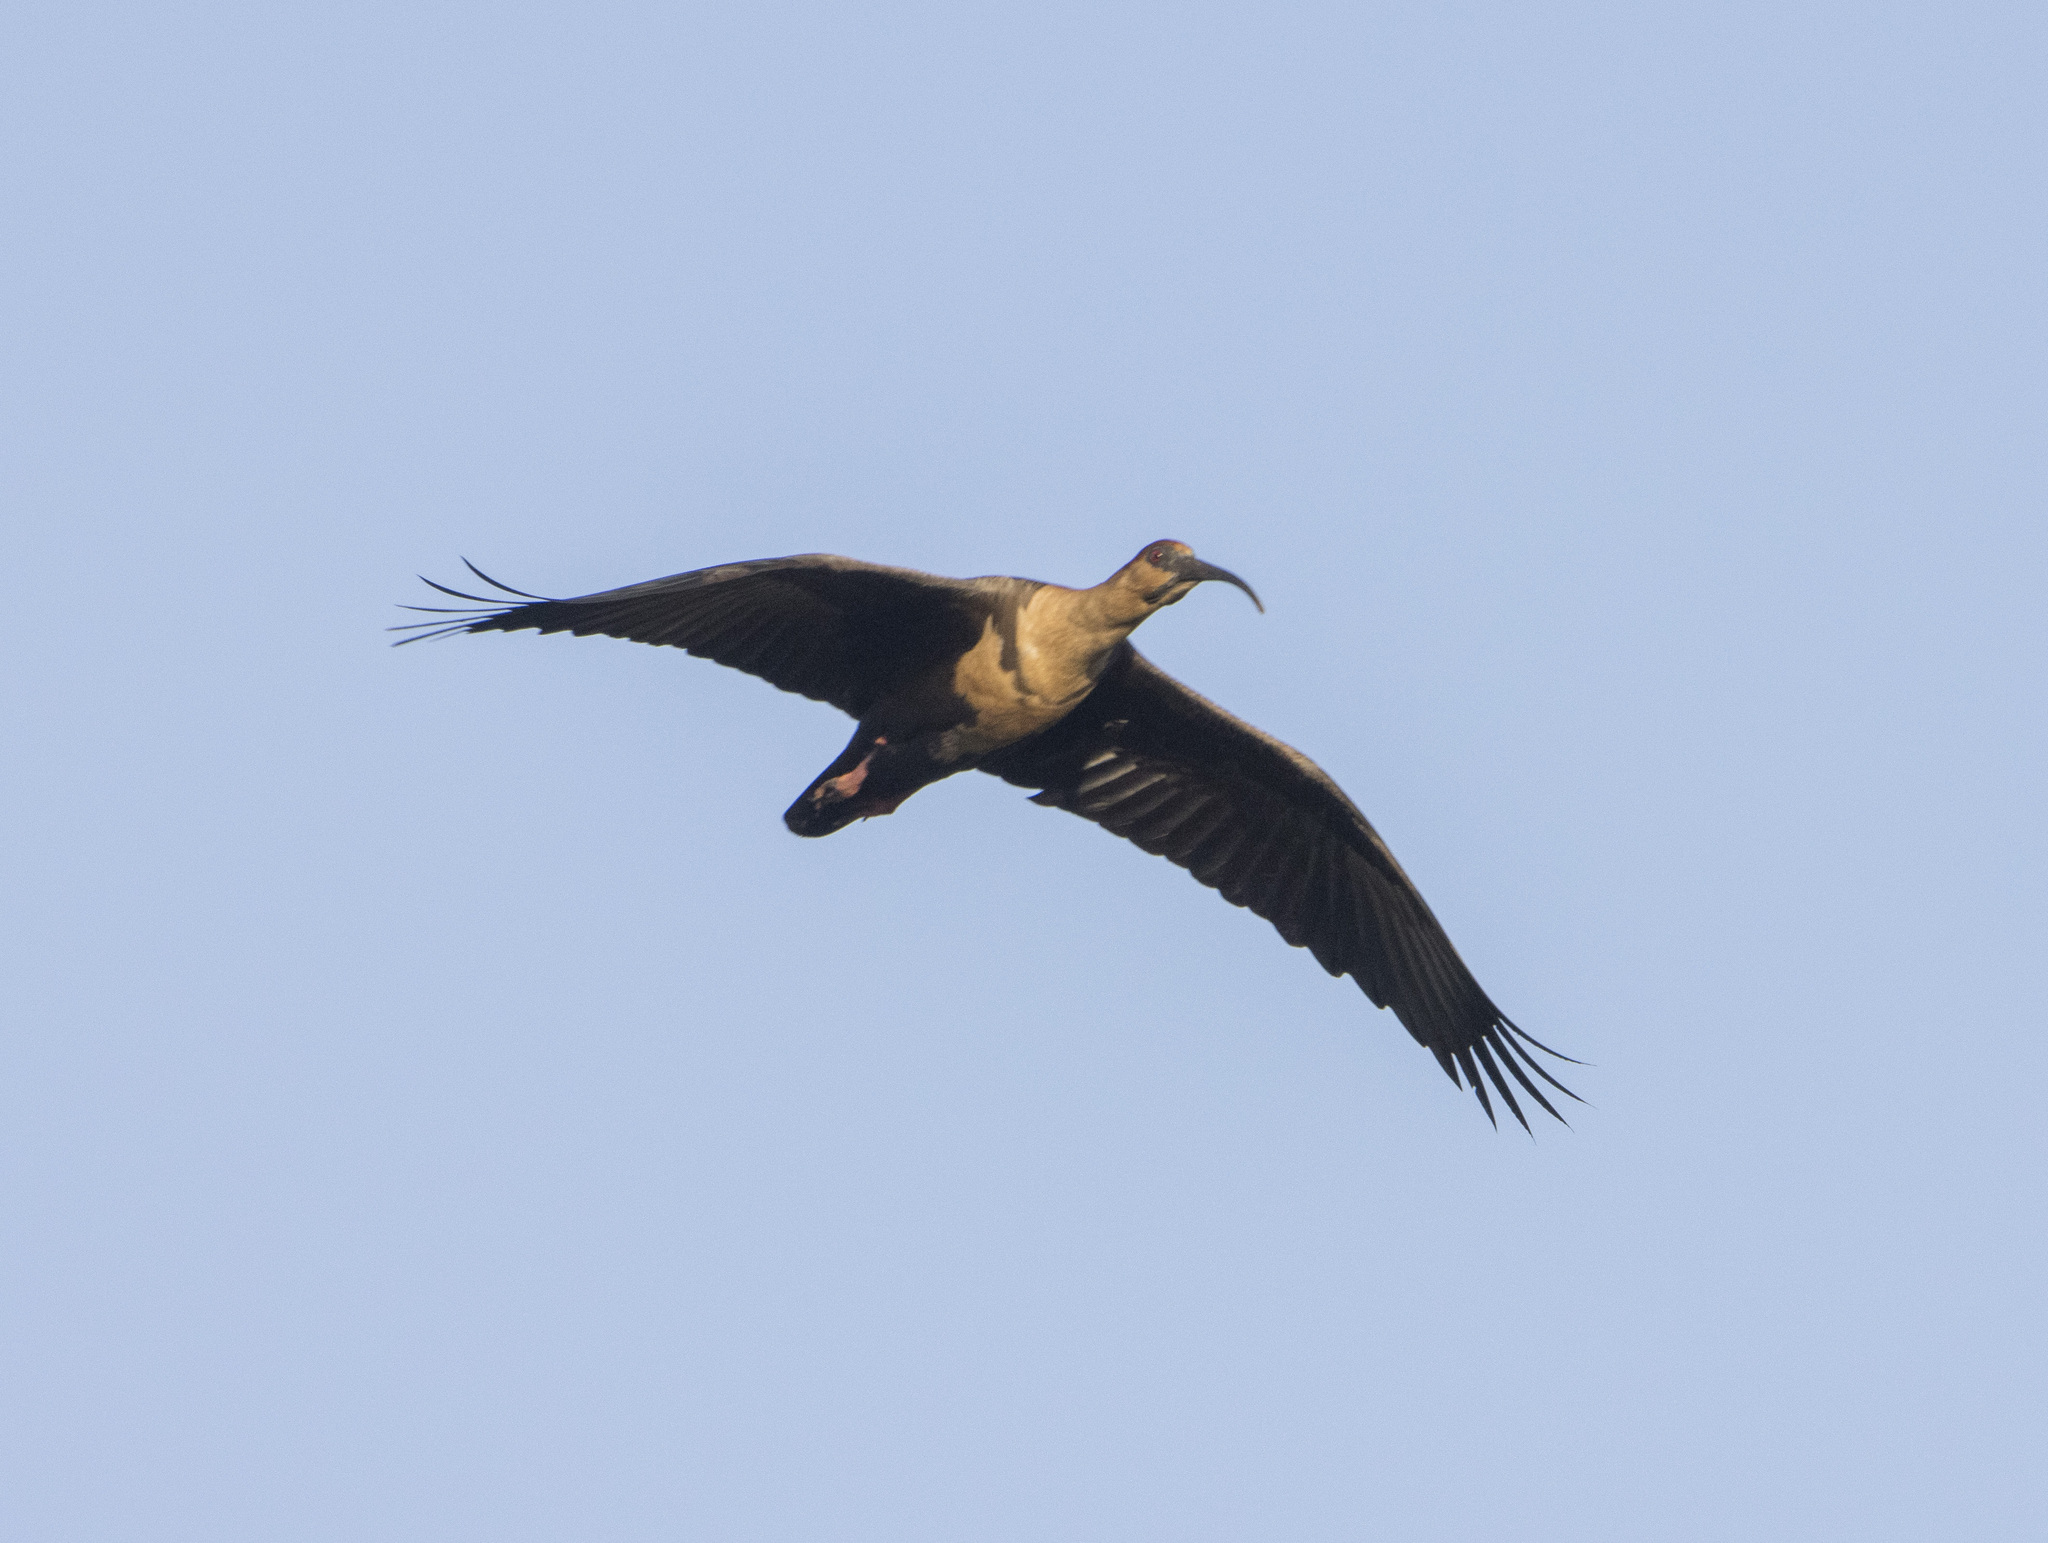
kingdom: Animalia
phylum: Chordata
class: Aves
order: Pelecaniformes
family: Threskiornithidae
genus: Theristicus
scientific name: Theristicus melanopis
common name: Black-faced ibis
